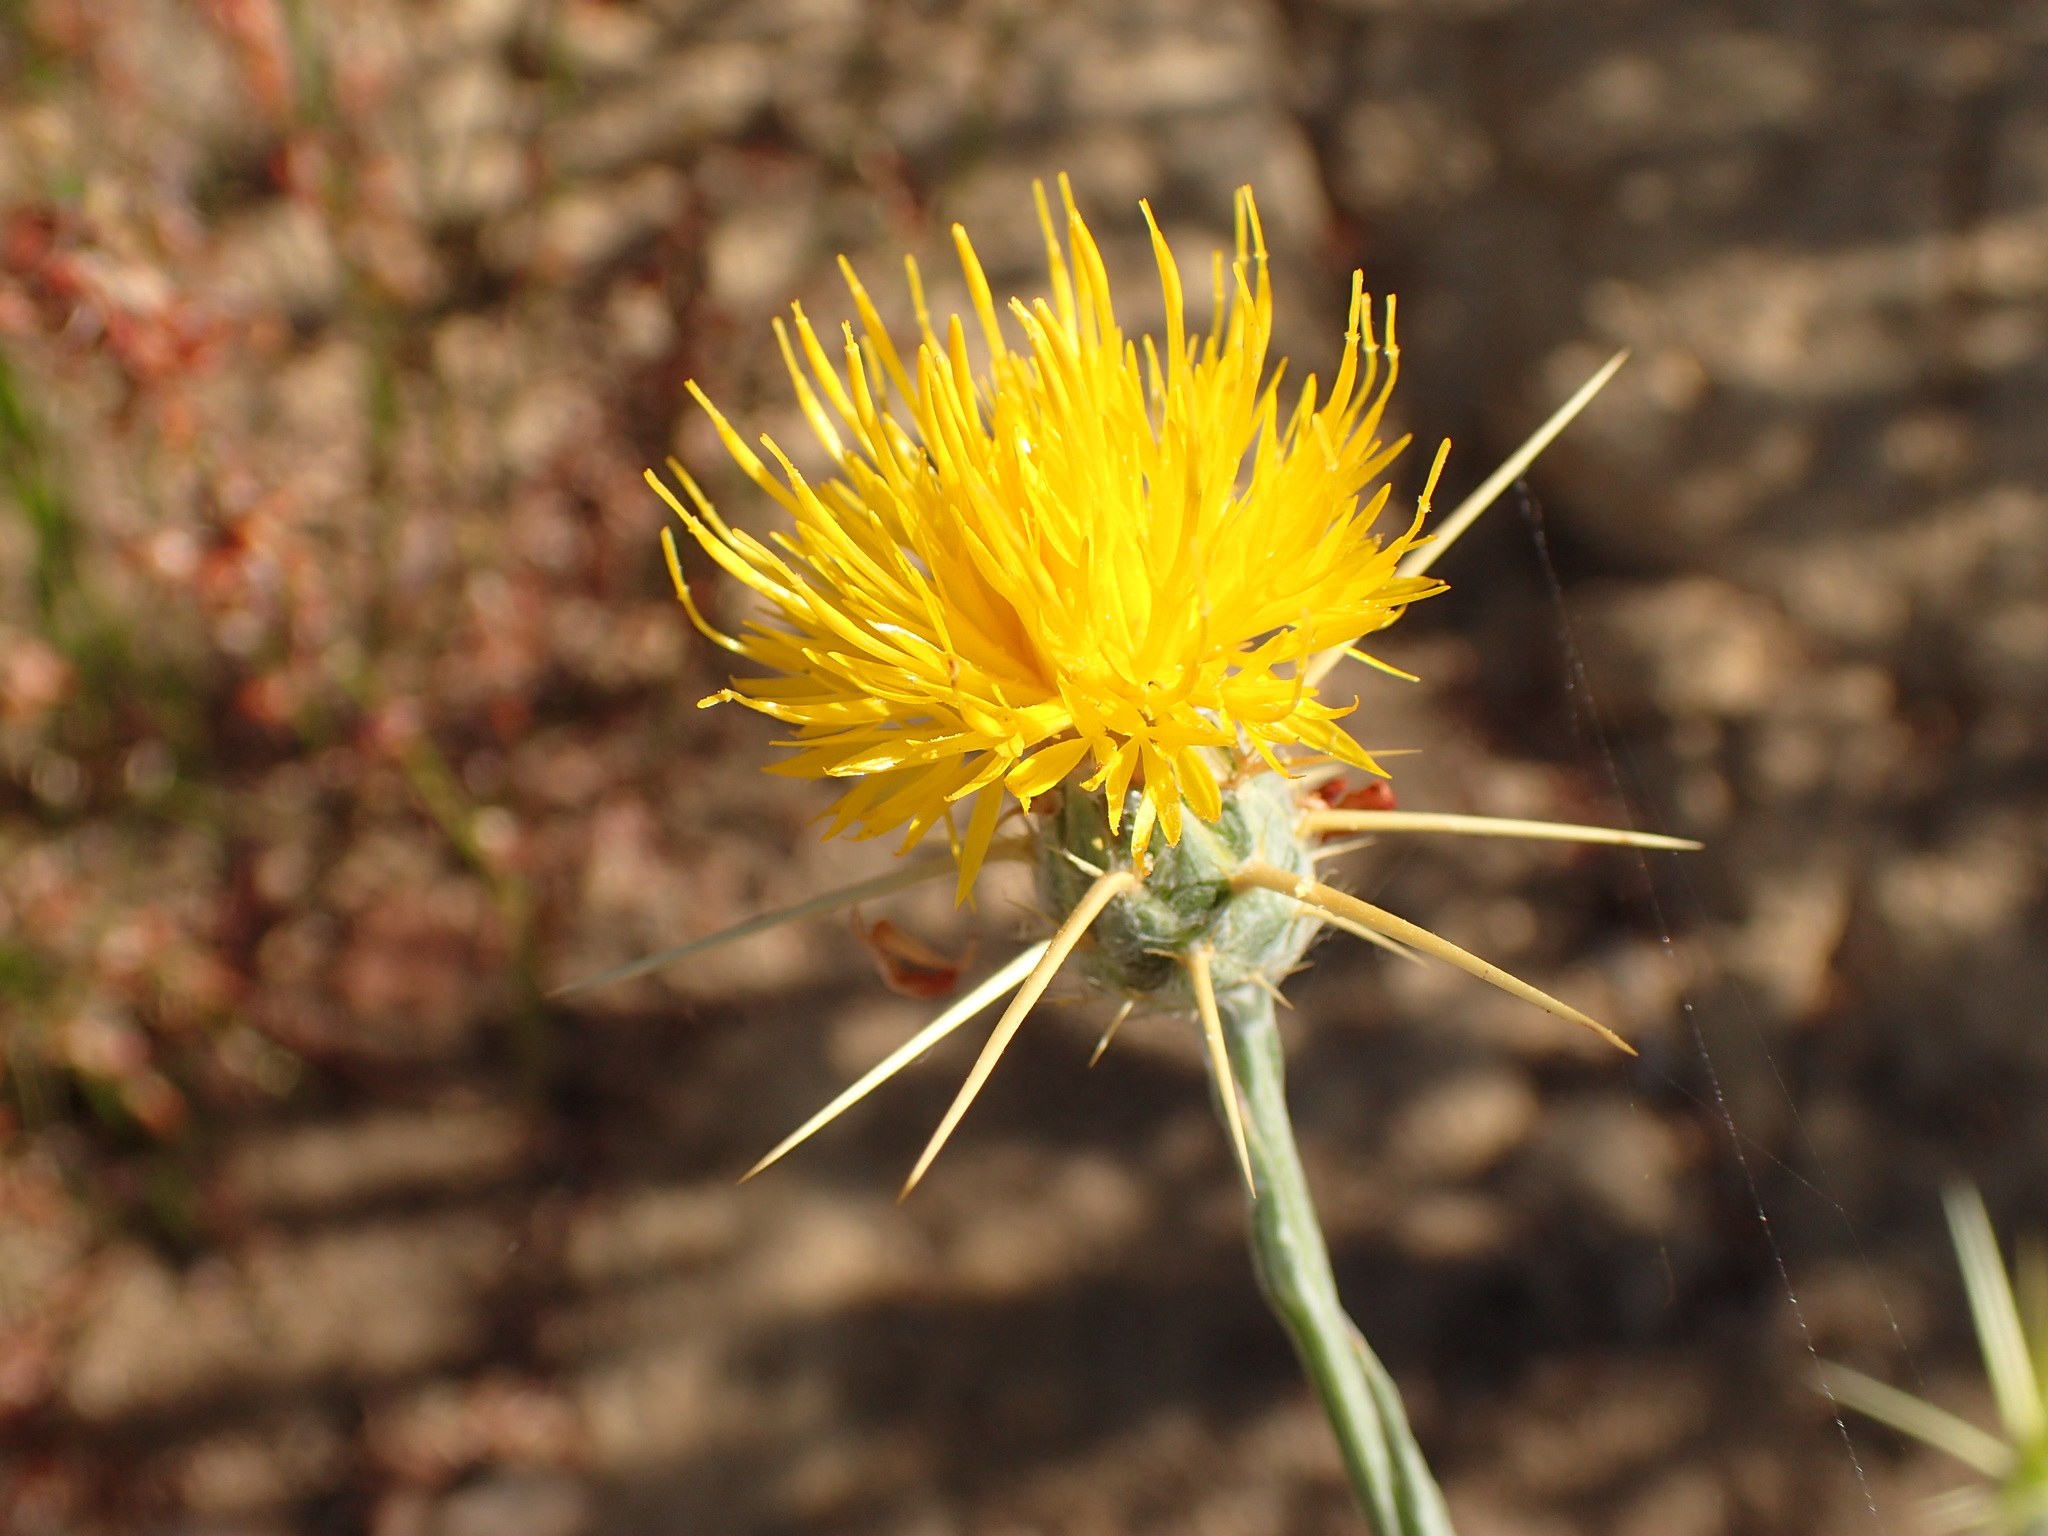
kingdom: Plantae
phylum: Tracheophyta
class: Magnoliopsida
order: Asterales
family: Asteraceae
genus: Centaurea
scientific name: Centaurea solstitialis
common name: Yellow star-thistle
